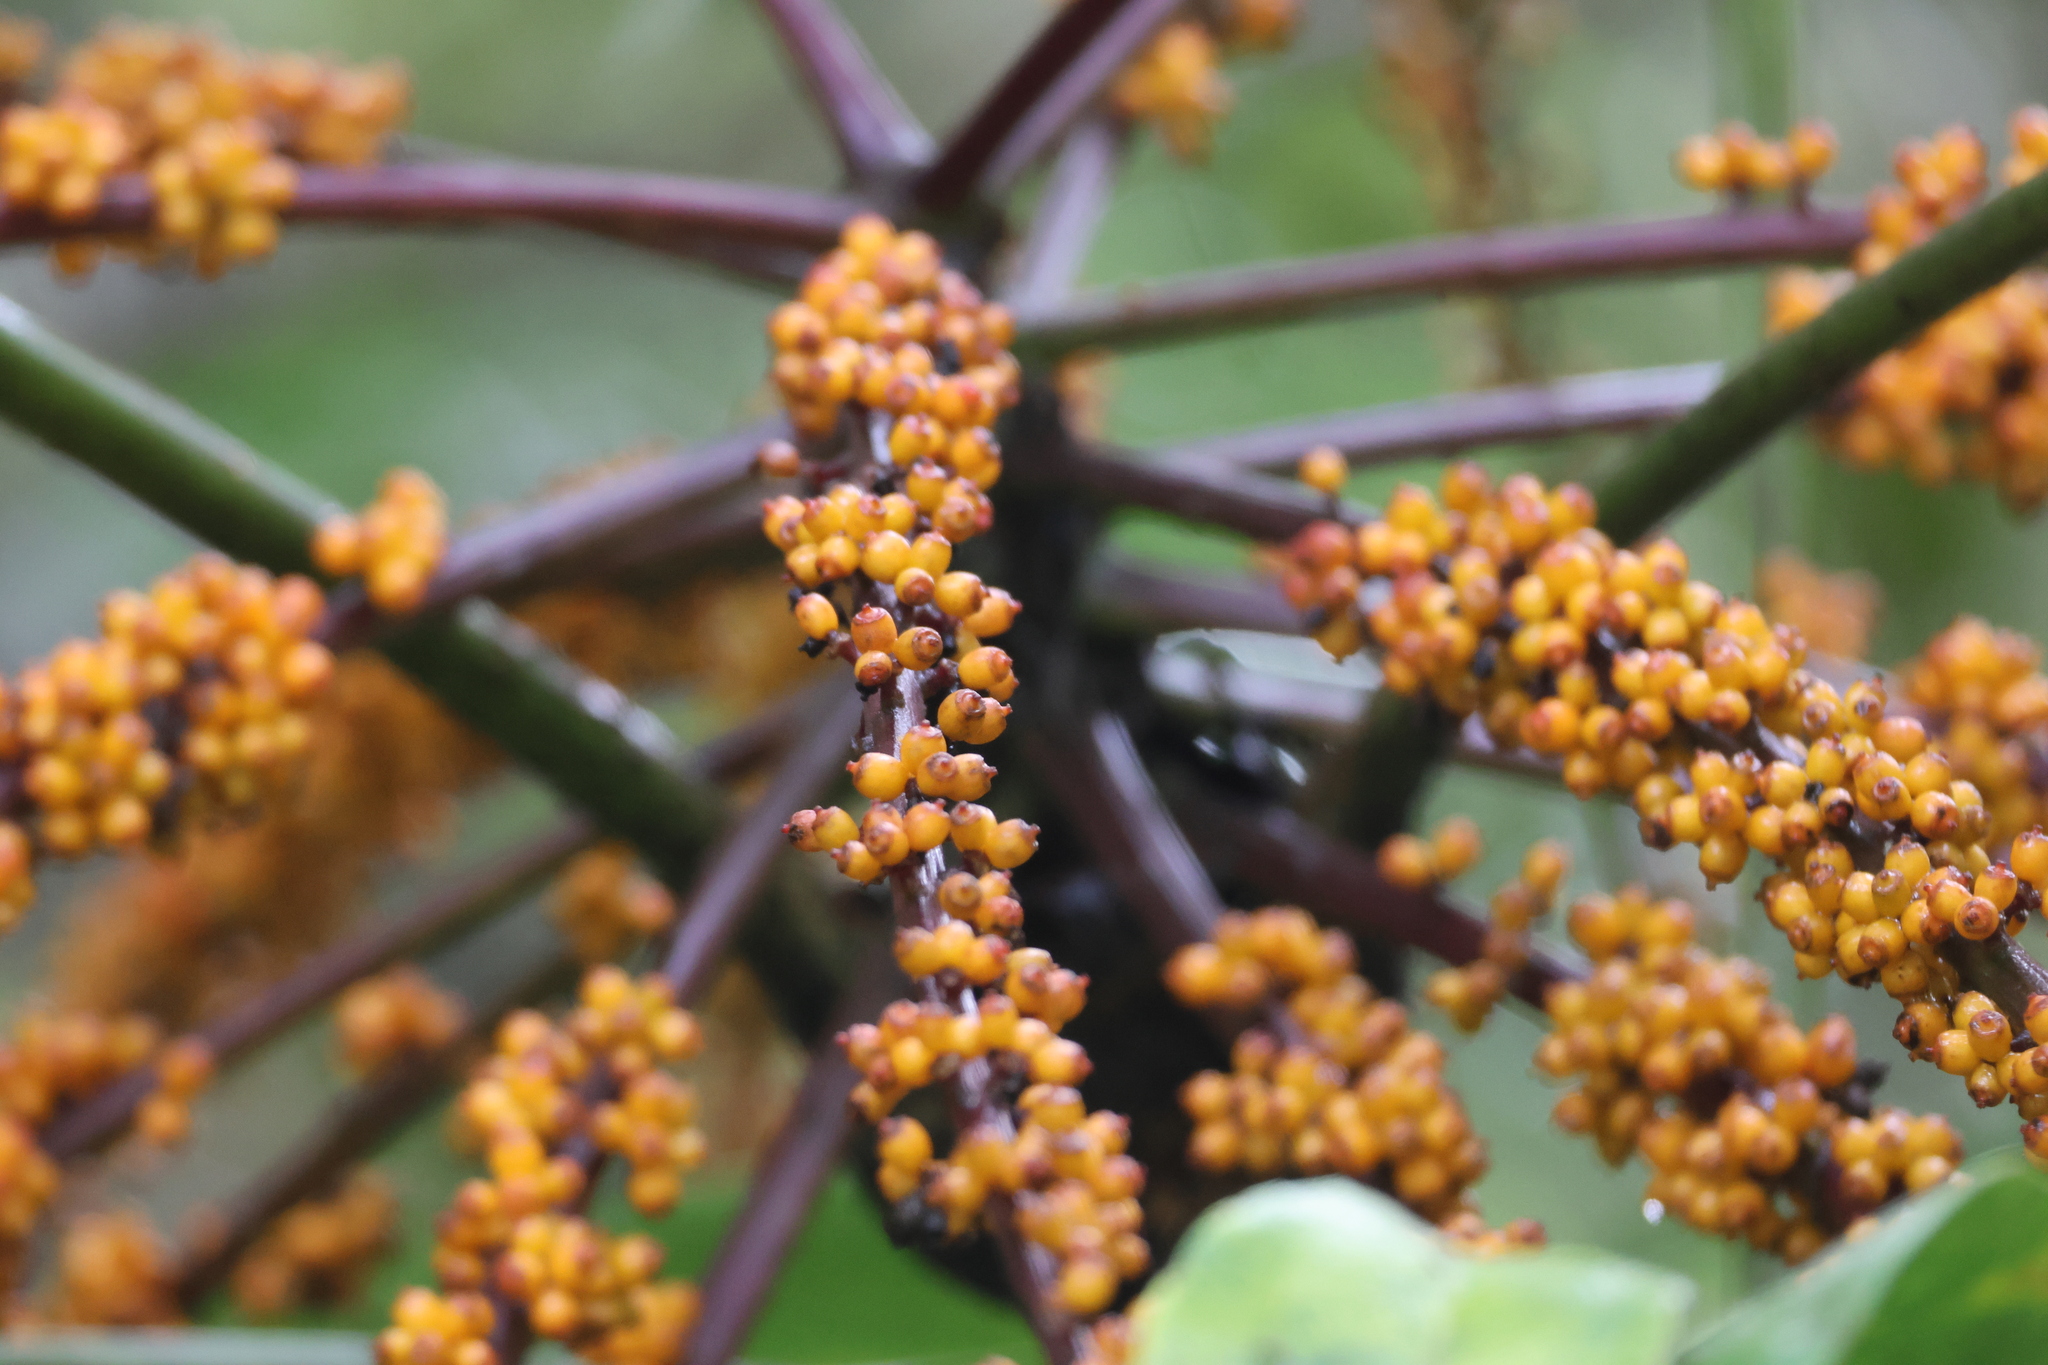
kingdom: Plantae
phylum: Tracheophyta
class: Magnoliopsida
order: Apiales
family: Araliaceae
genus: Heptapleurum
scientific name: Heptapleurum bipalmatifolium
